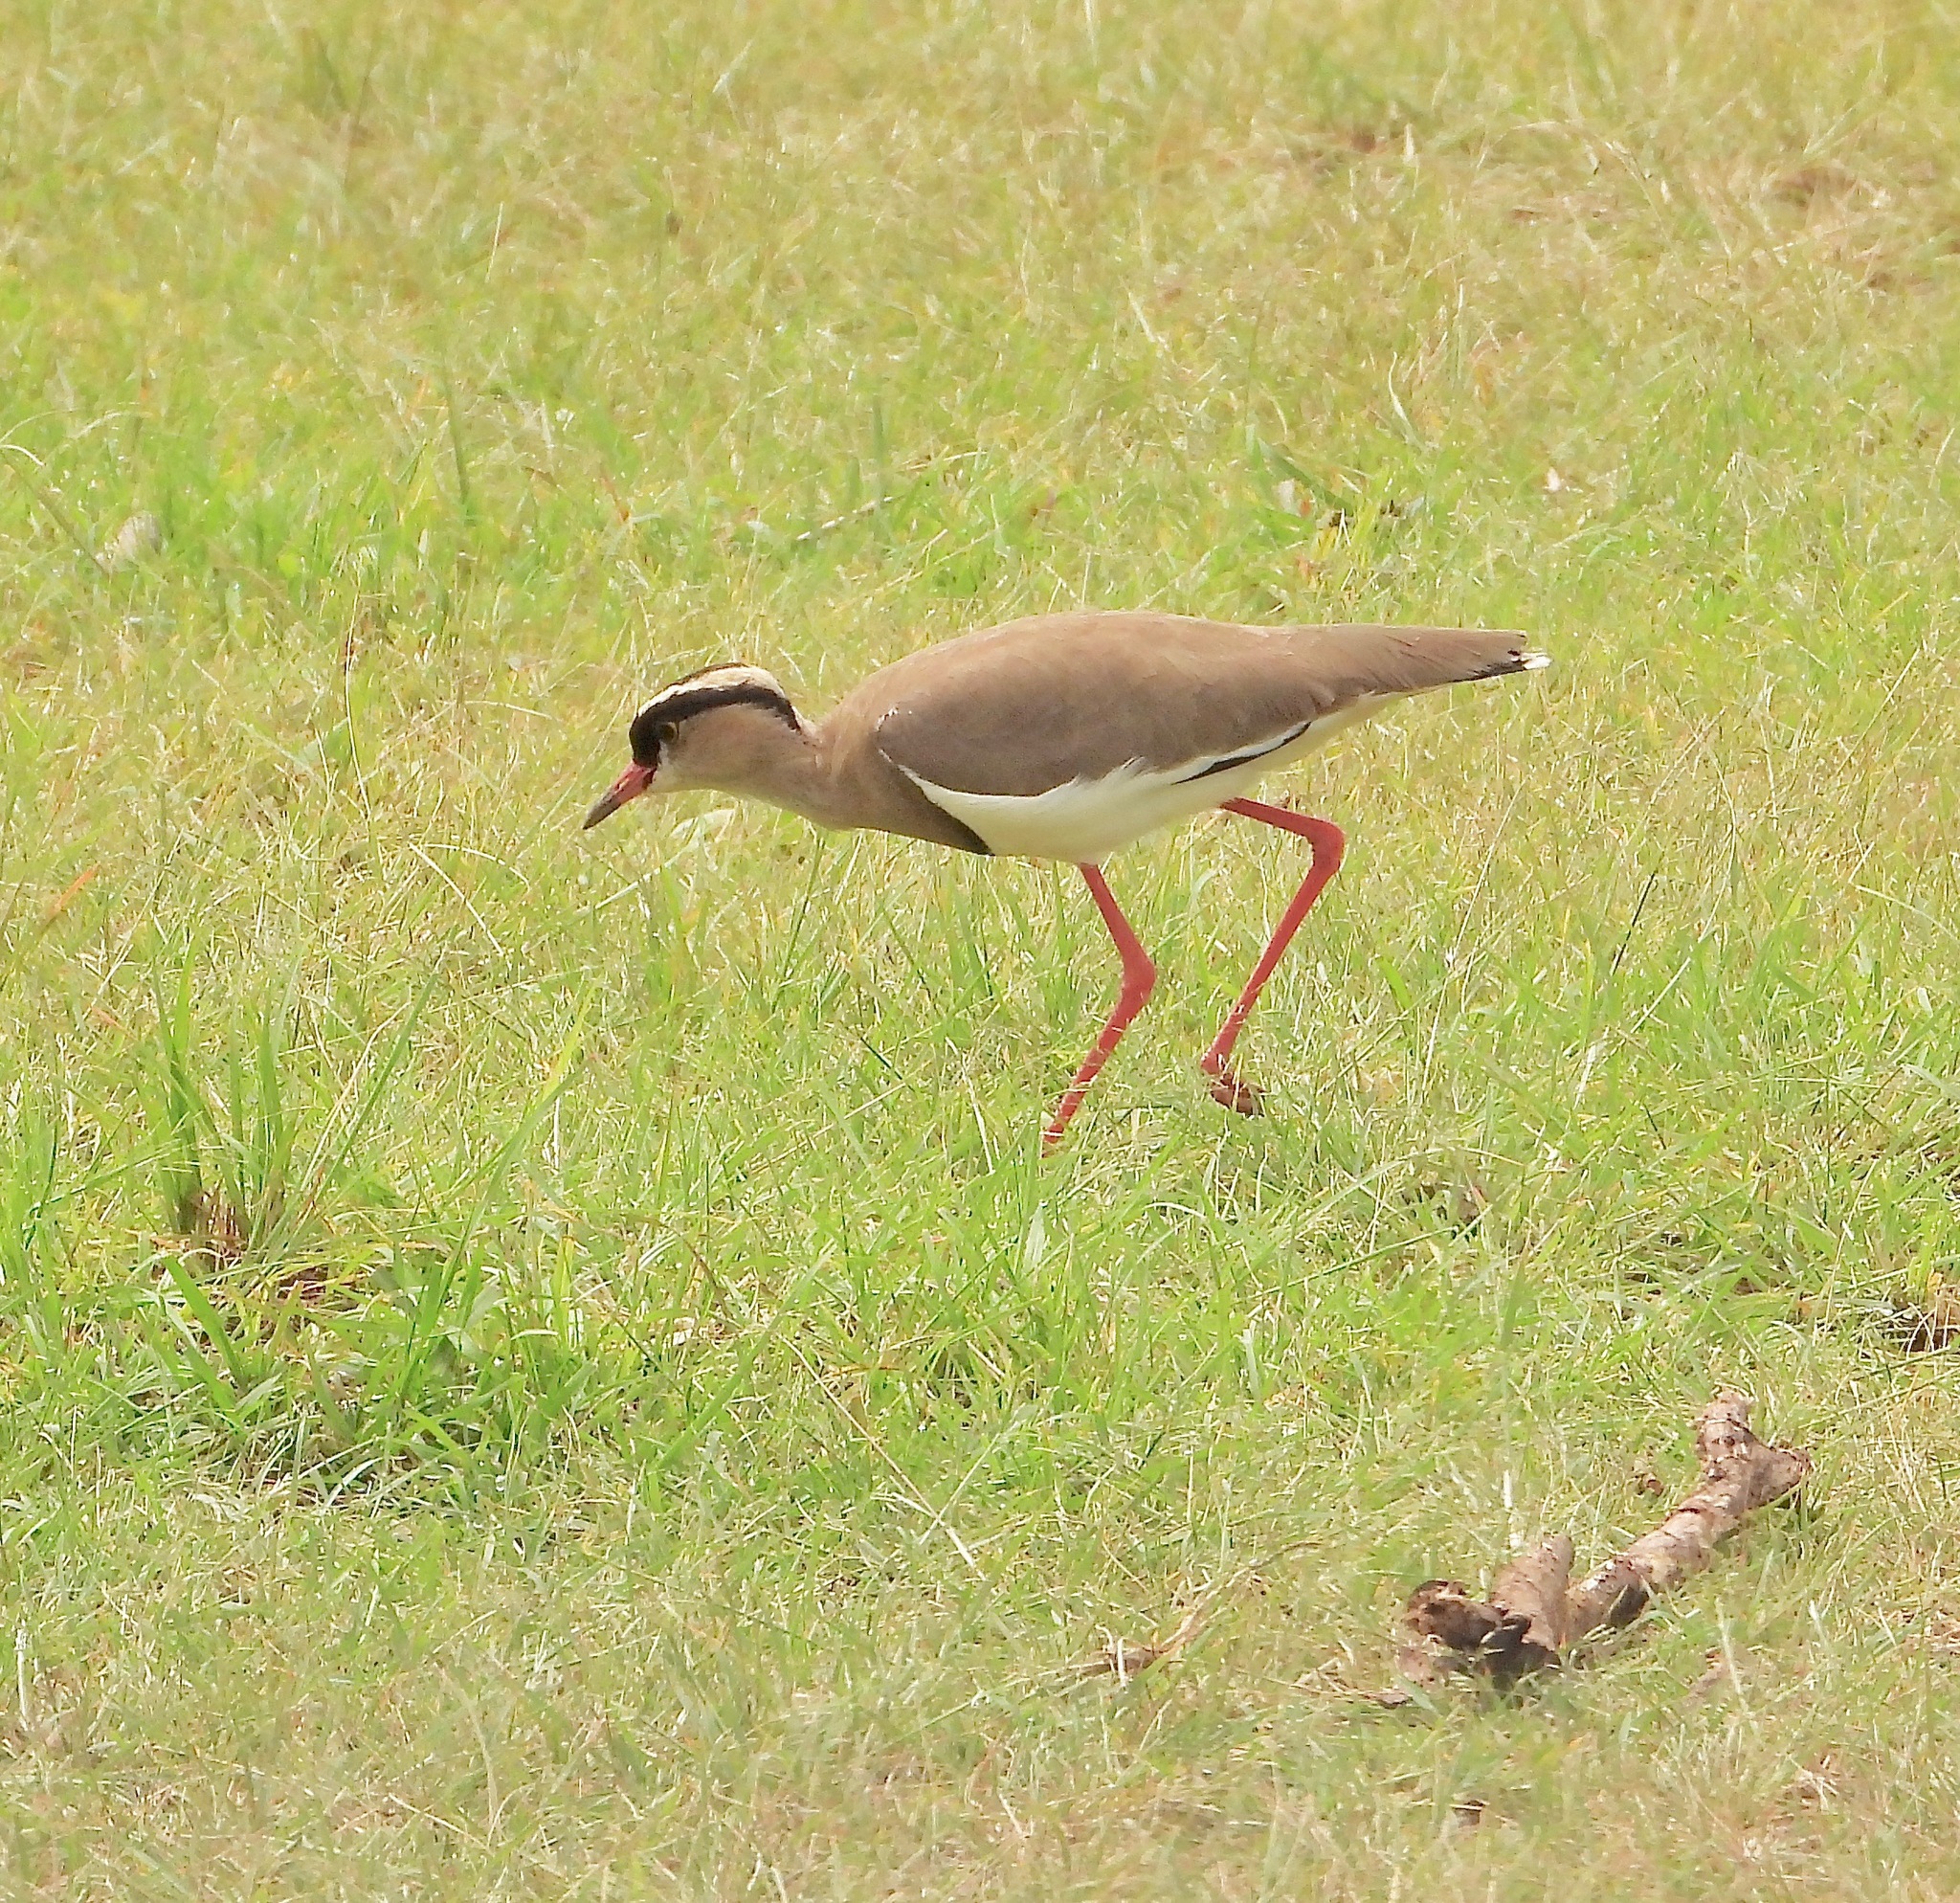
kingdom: Animalia
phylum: Chordata
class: Aves
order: Charadriiformes
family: Charadriidae
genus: Vanellus
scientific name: Vanellus coronatus
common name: Crowned lapwing
